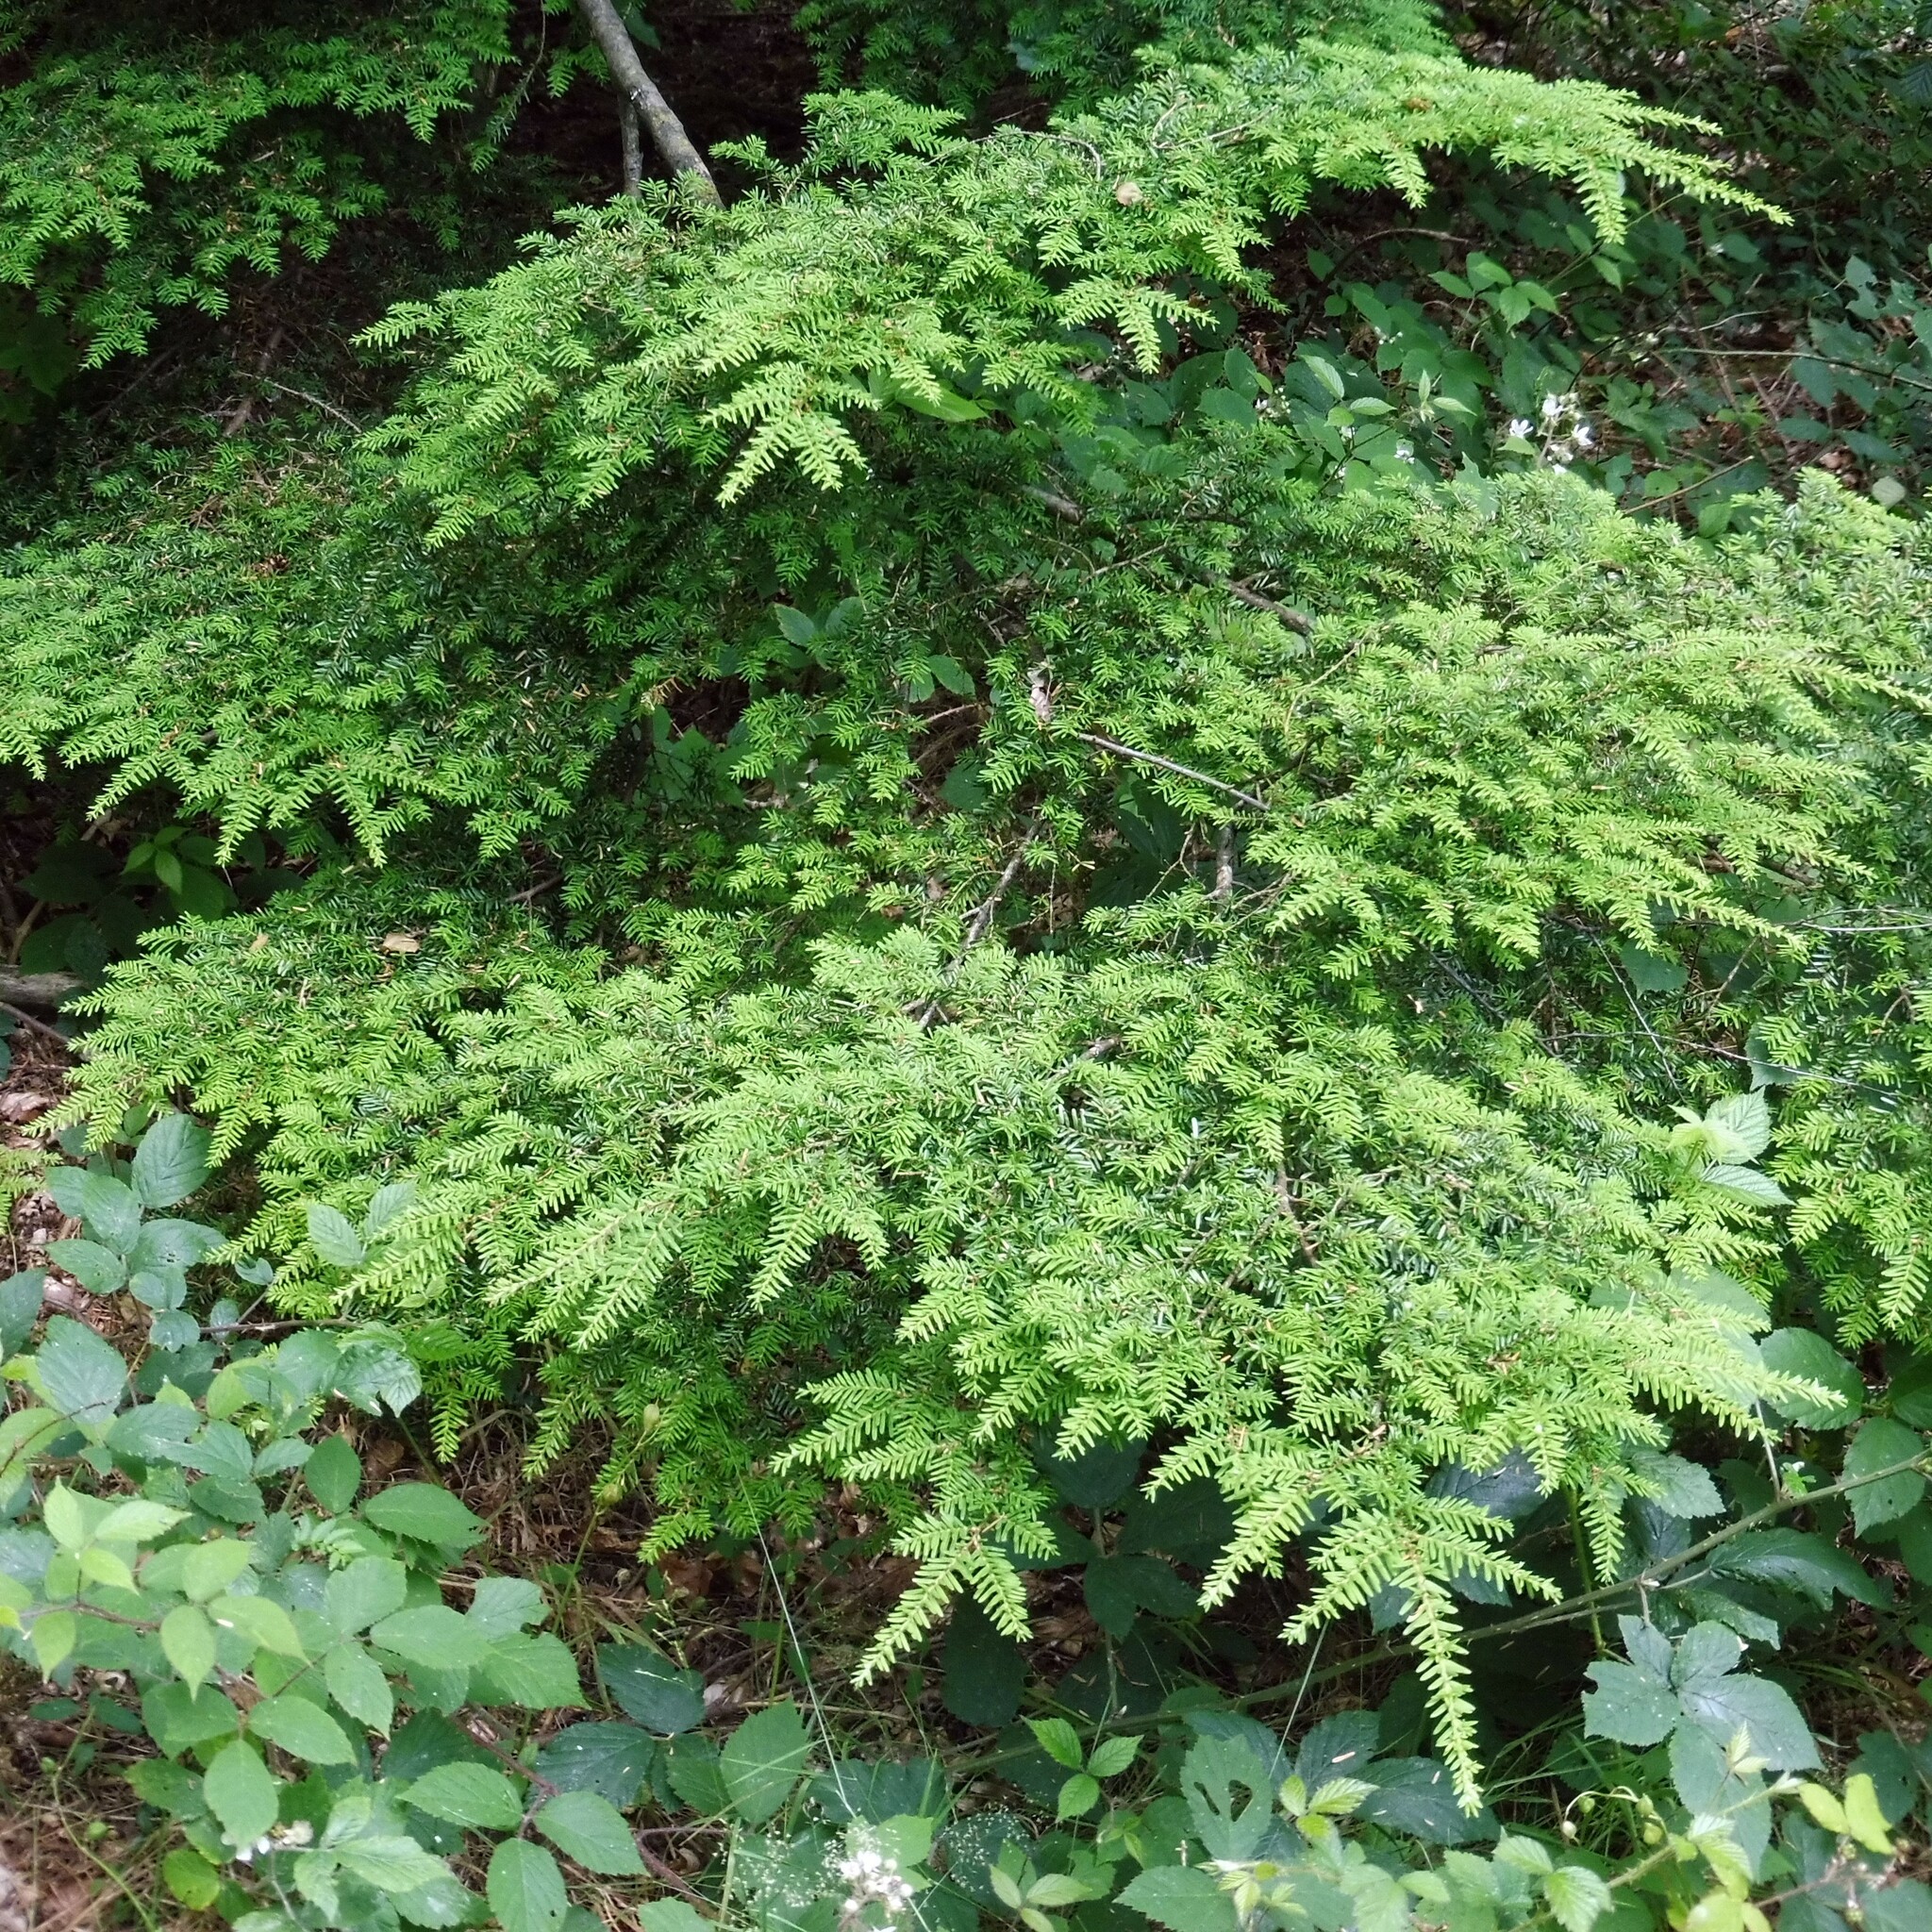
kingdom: Plantae
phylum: Tracheophyta
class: Pinopsida
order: Pinales
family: Pinaceae
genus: Tsuga
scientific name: Tsuga heterophylla
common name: Western hemlock
